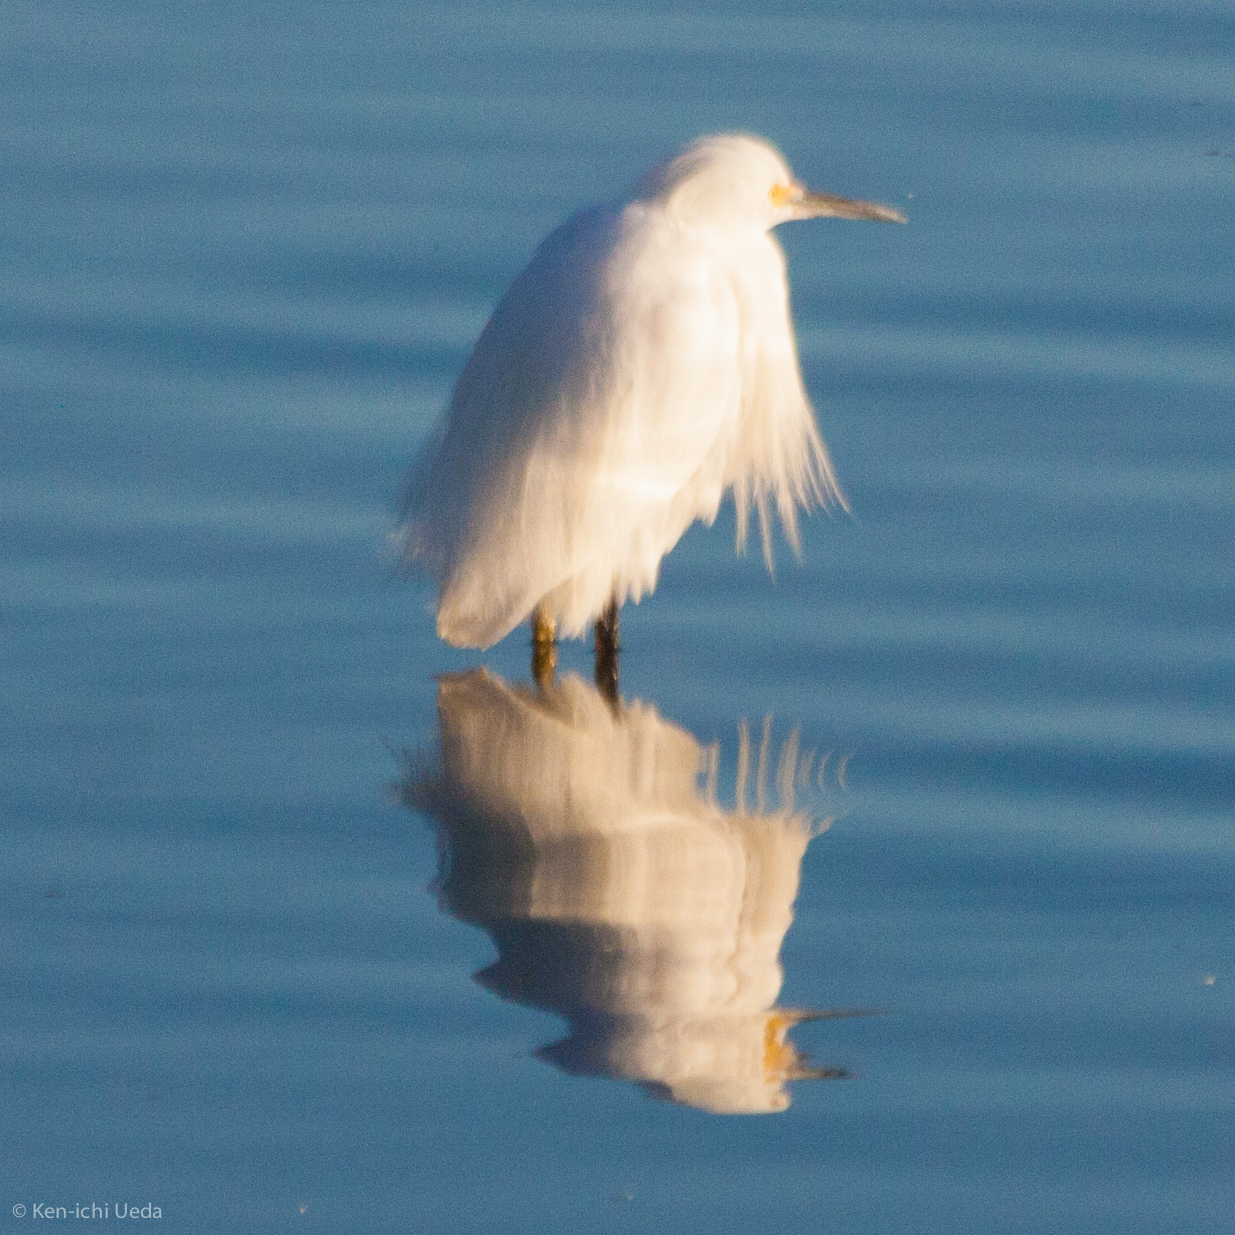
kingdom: Animalia
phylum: Chordata
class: Aves
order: Pelecaniformes
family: Ardeidae
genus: Egretta
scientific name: Egretta thula
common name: Snowy egret
